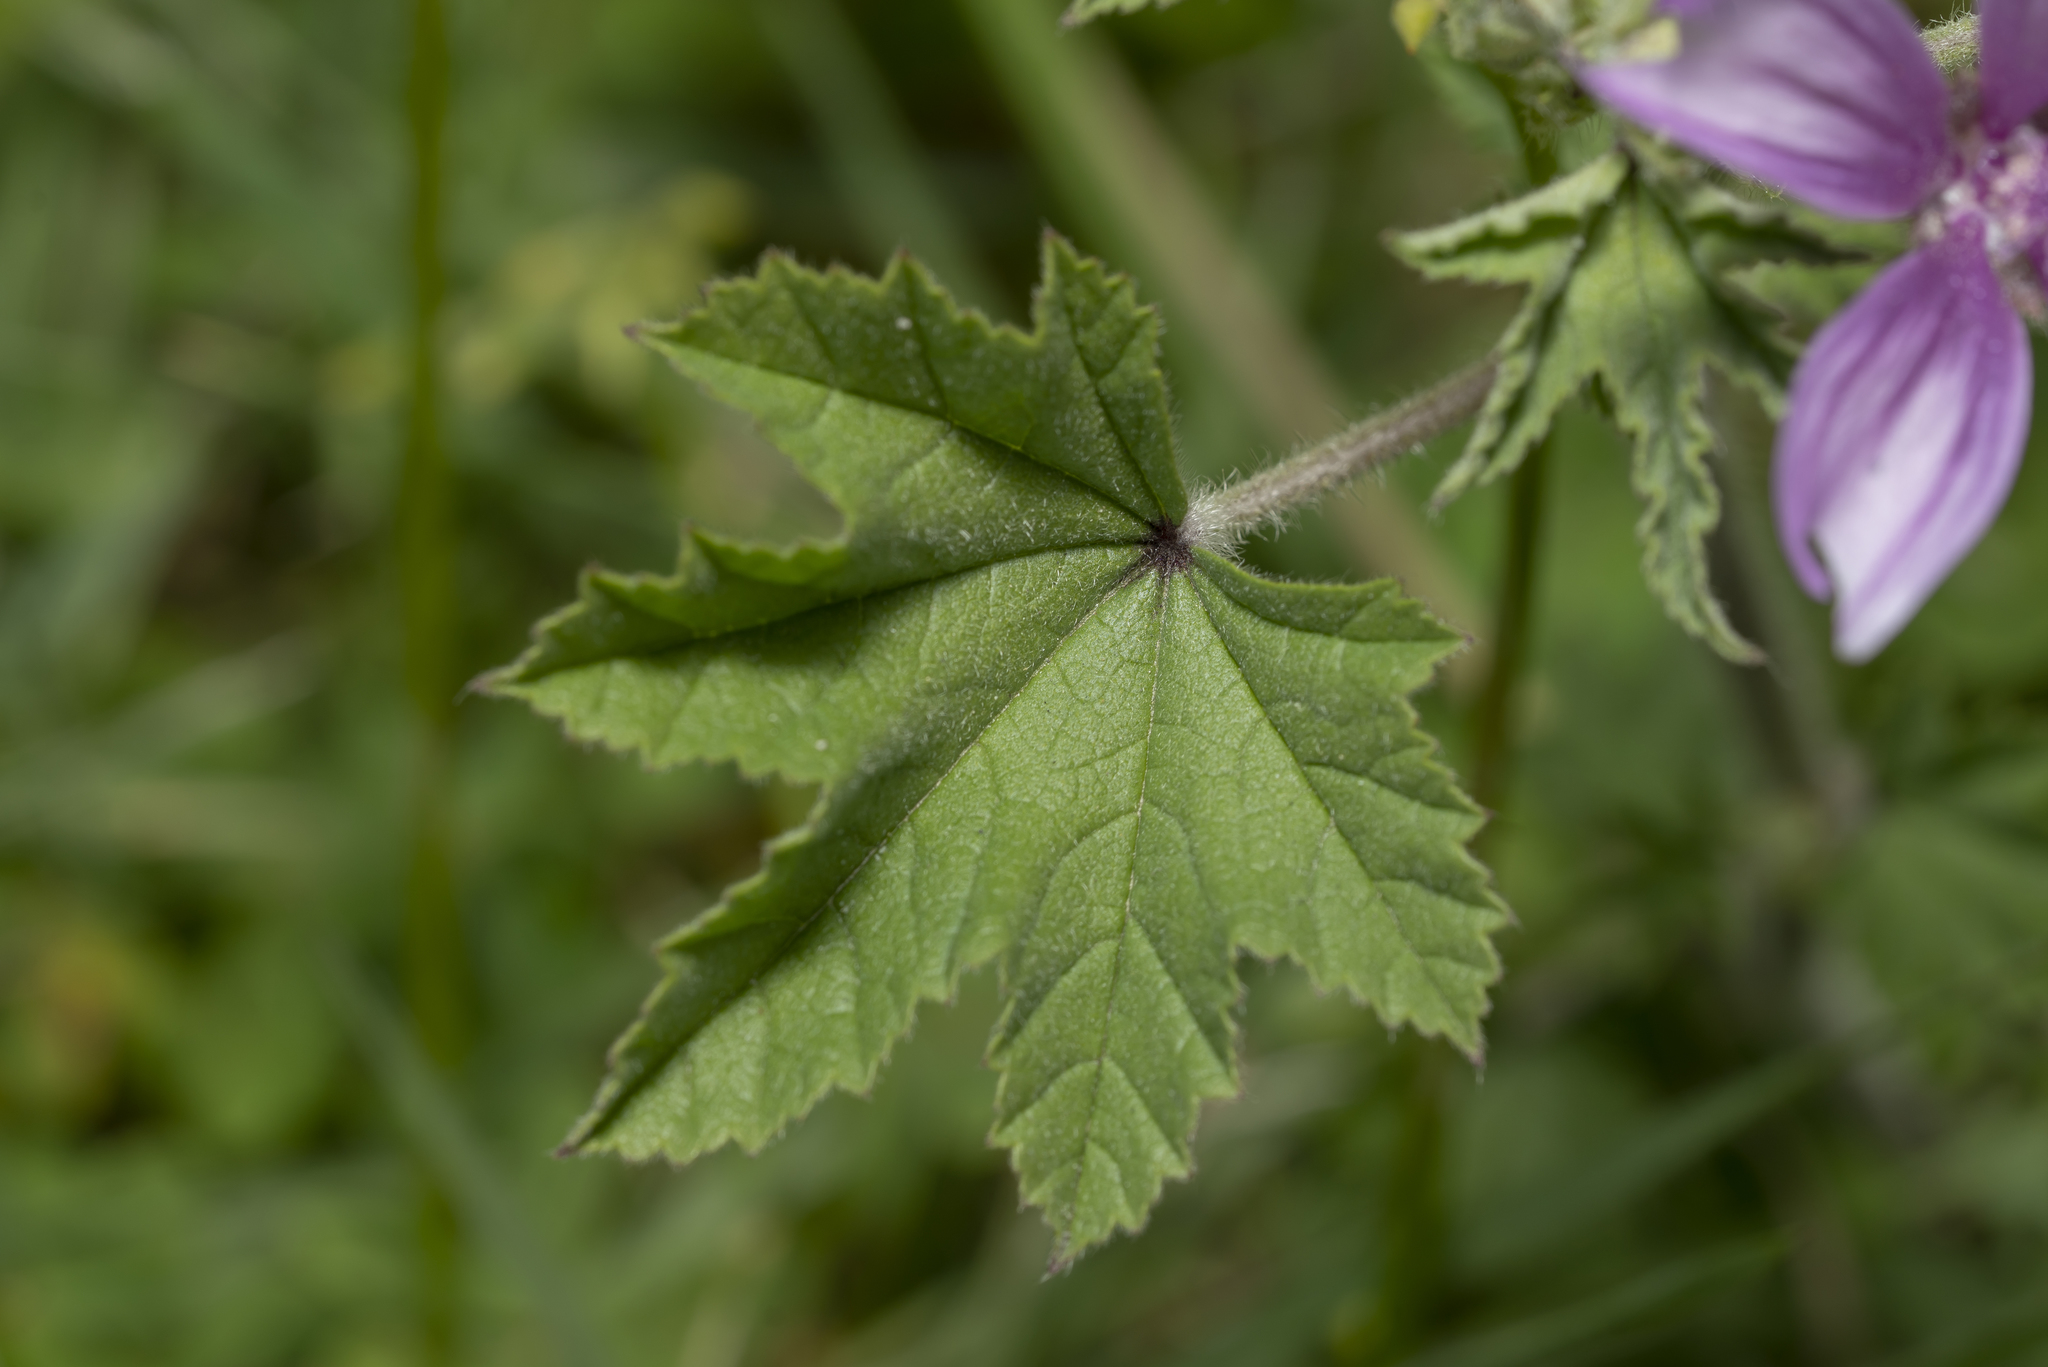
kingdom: Plantae
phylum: Tracheophyta
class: Magnoliopsida
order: Malvales
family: Malvaceae
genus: Malva
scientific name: Malva sylvestris
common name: Common mallow
